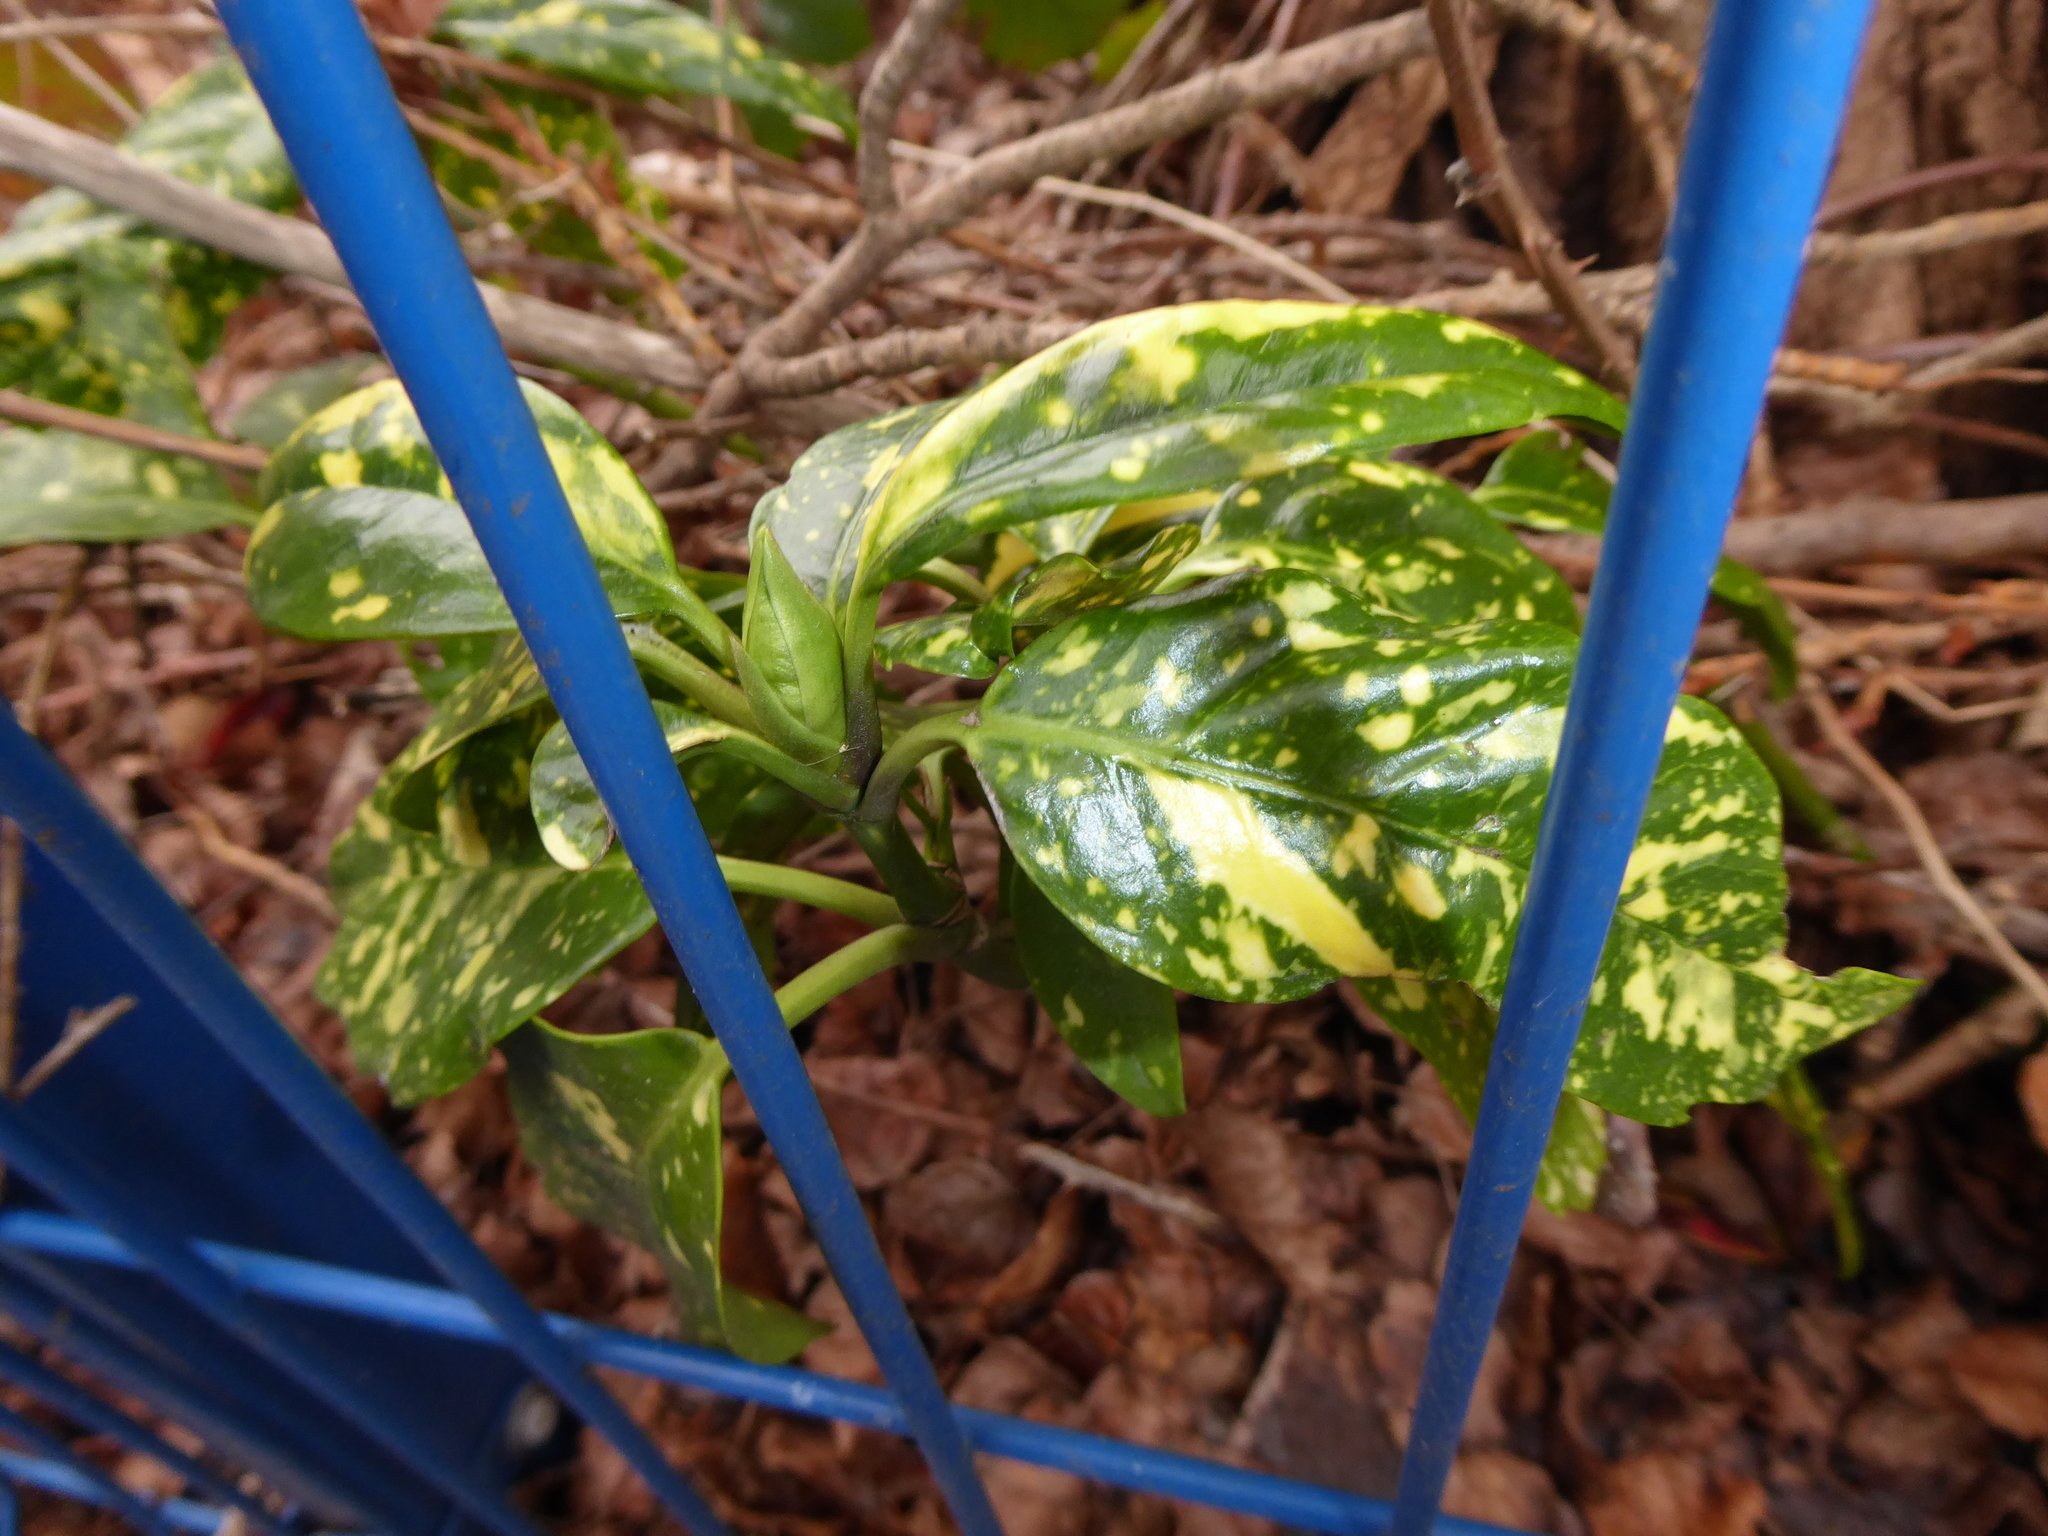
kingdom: Plantae
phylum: Tracheophyta
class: Magnoliopsida
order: Garryales
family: Garryaceae
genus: Aucuba
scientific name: Aucuba japonica
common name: Spotted-laurel
